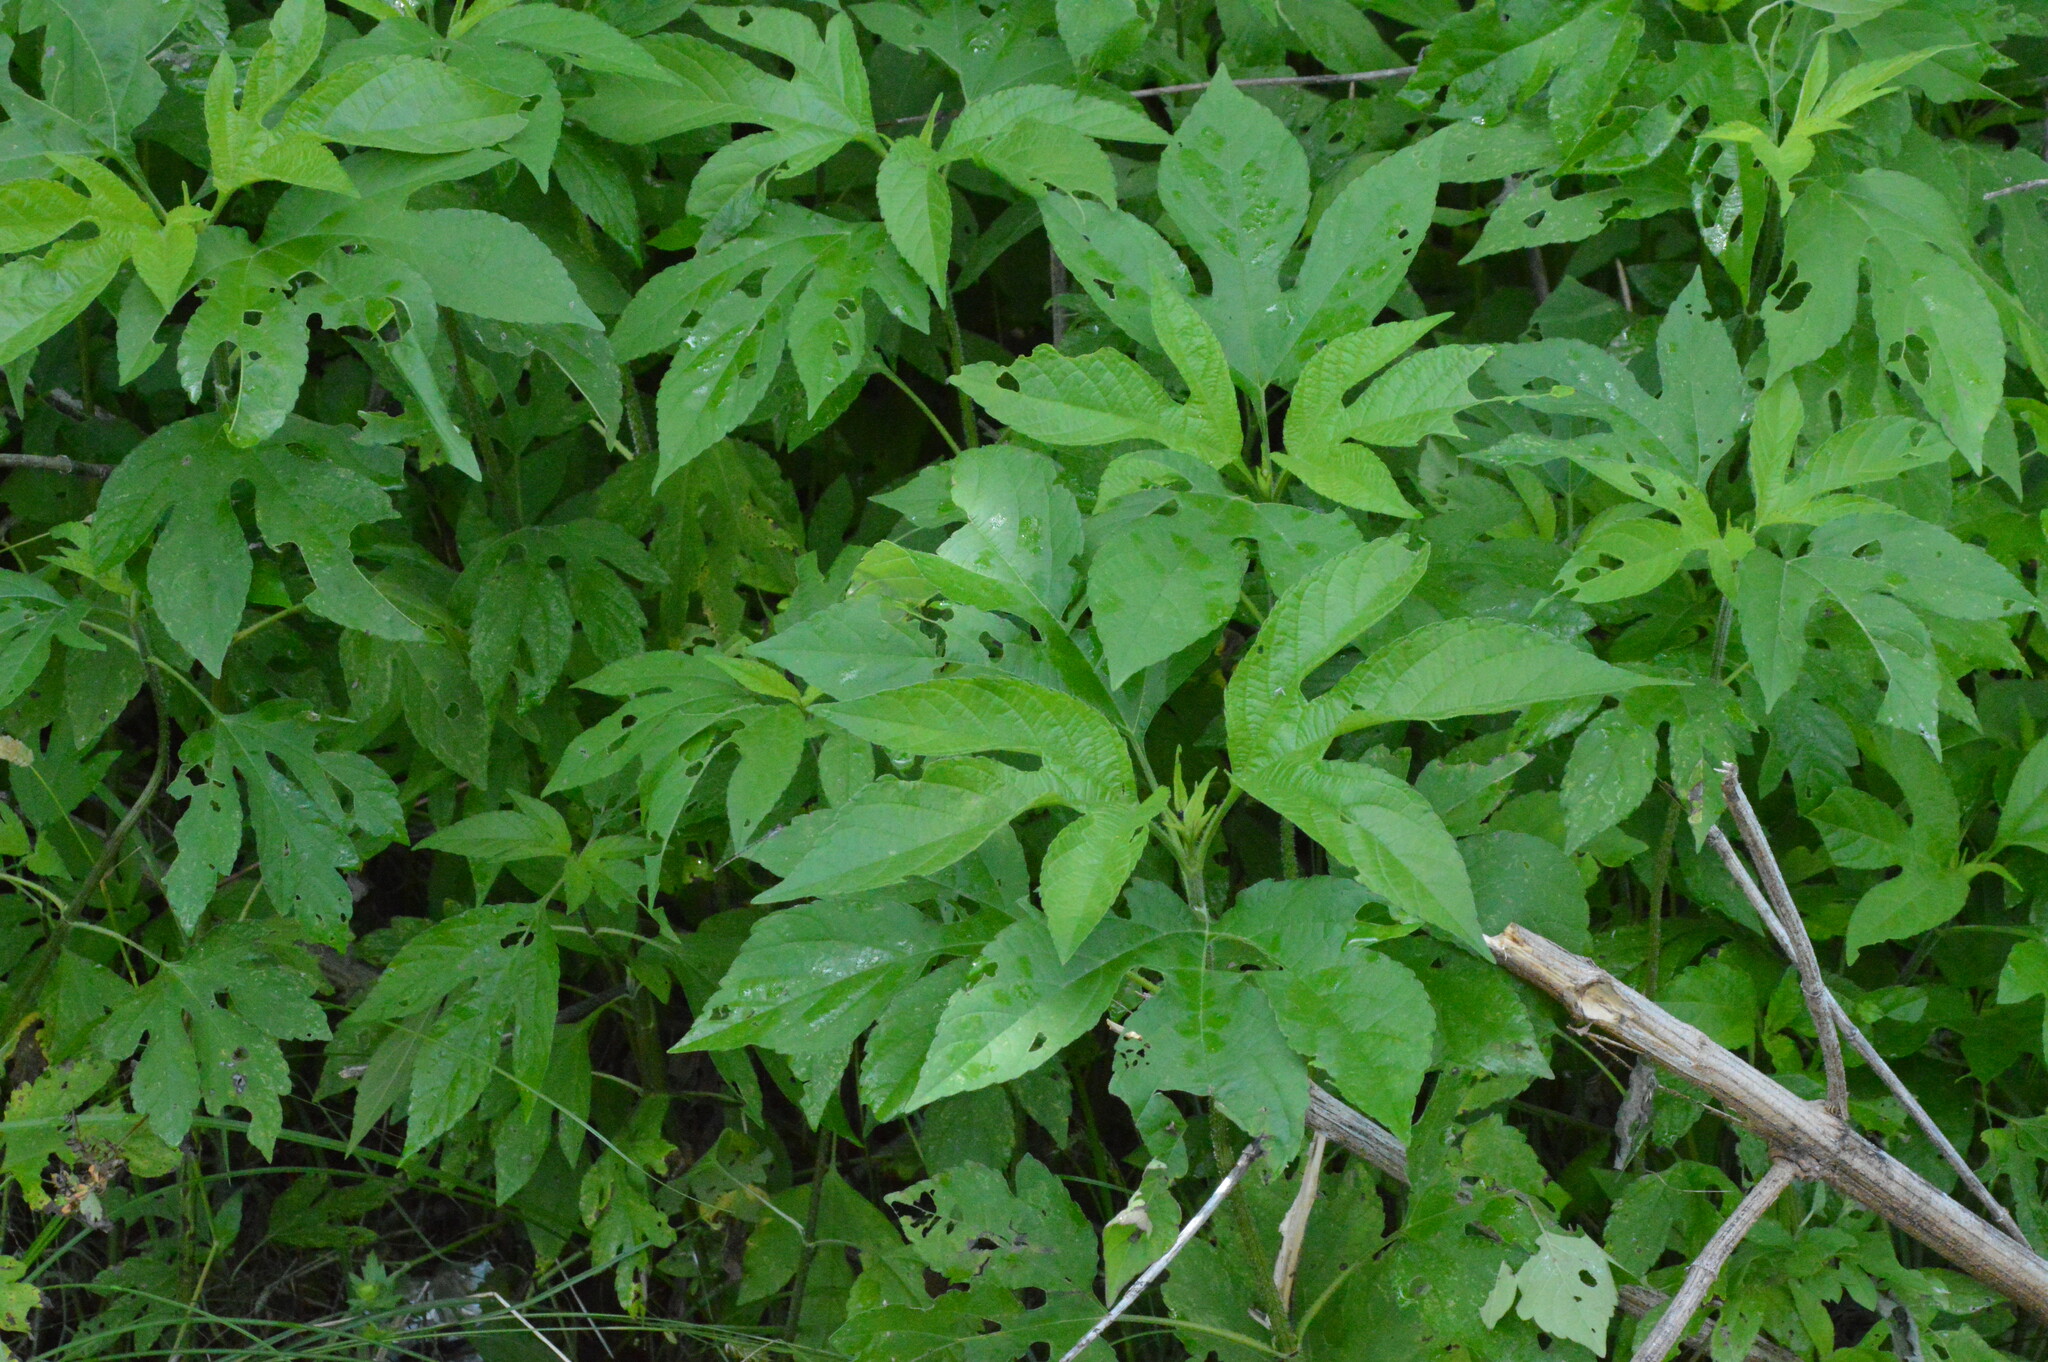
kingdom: Plantae
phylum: Tracheophyta
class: Magnoliopsida
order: Asterales
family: Asteraceae
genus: Ambrosia
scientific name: Ambrosia trifida
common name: Giant ragweed
